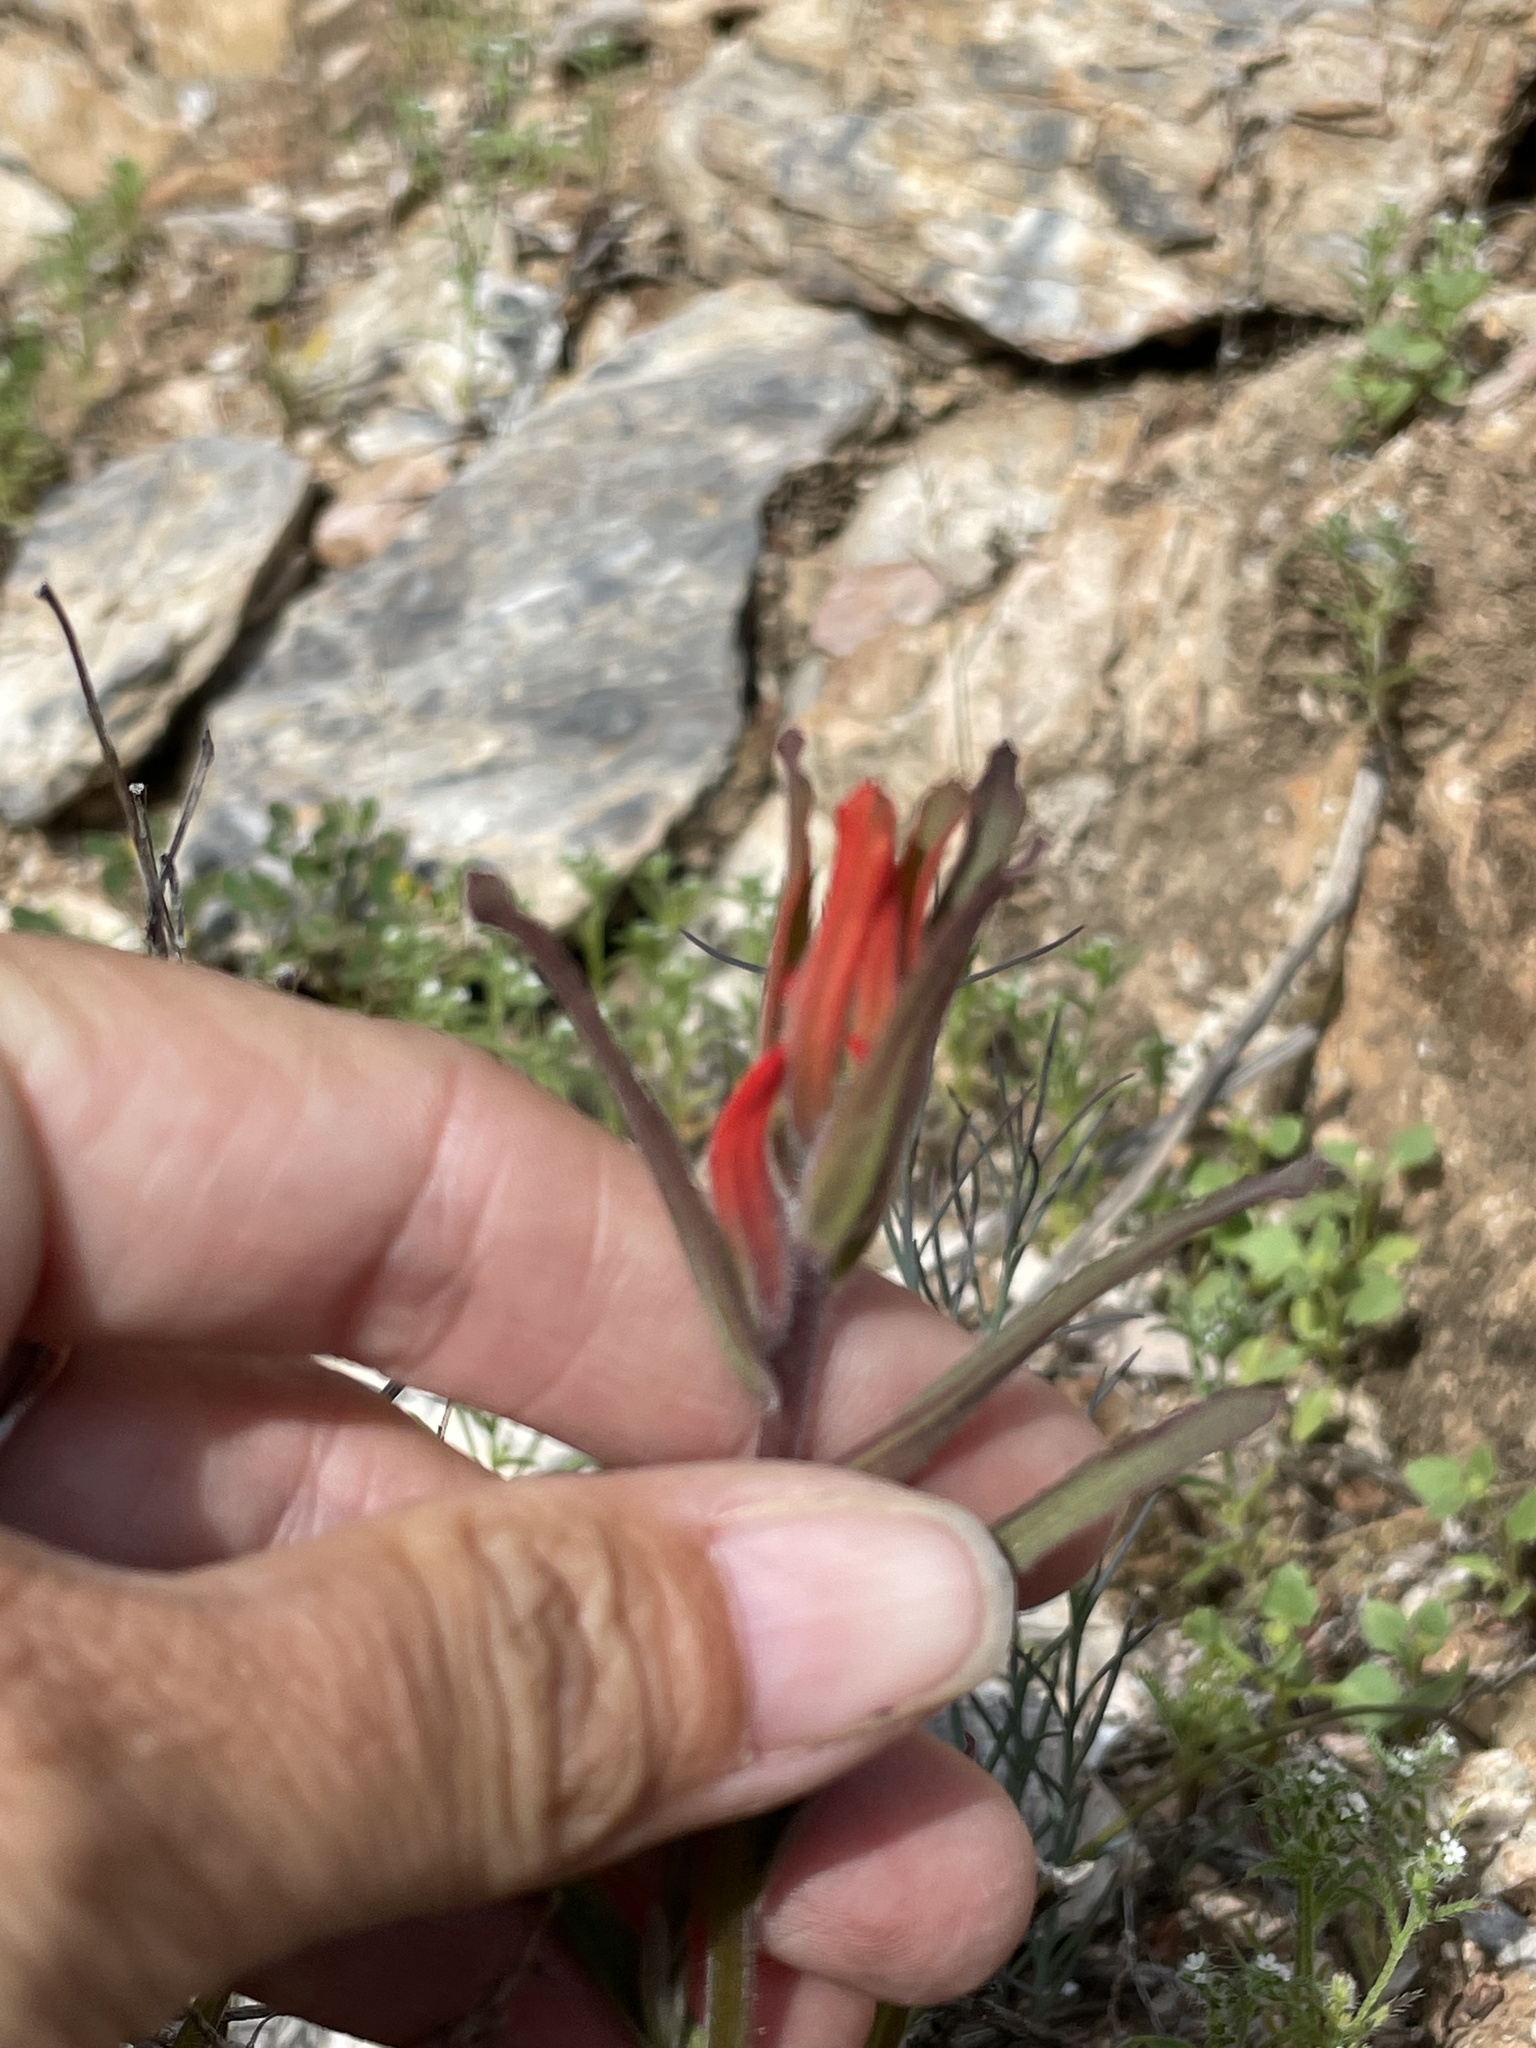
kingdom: Plantae
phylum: Tracheophyta
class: Magnoliopsida
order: Lamiales
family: Orobanchaceae
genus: Castilleja
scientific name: Castilleja subinclusa
